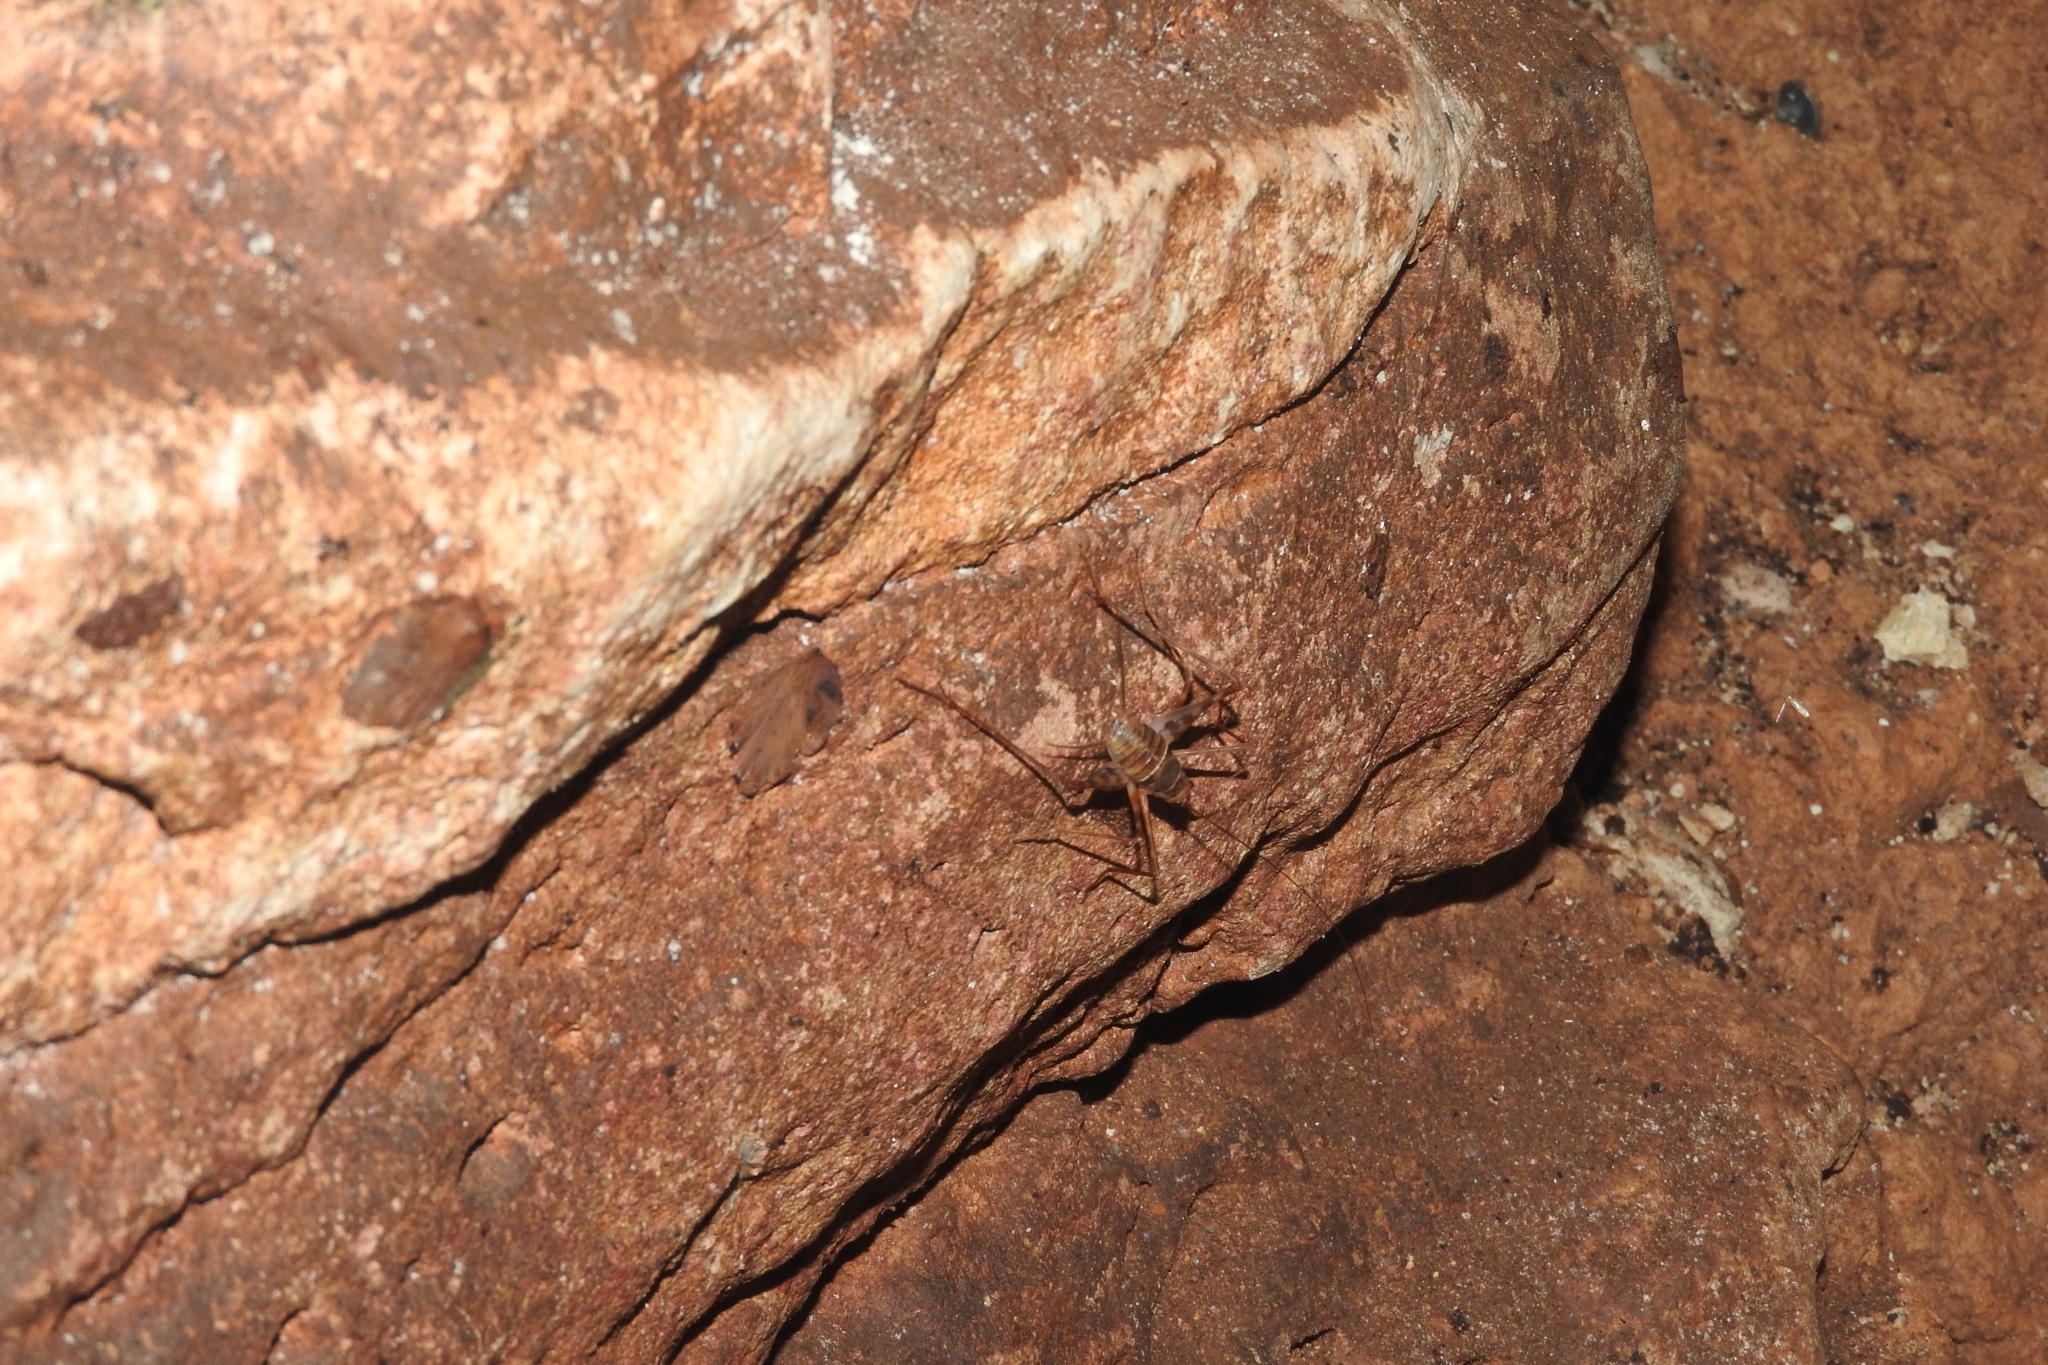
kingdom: Animalia
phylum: Arthropoda
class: Insecta
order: Orthoptera
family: Phalangopsidae
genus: Mayagryllus
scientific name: Mayagryllus yucatanus
